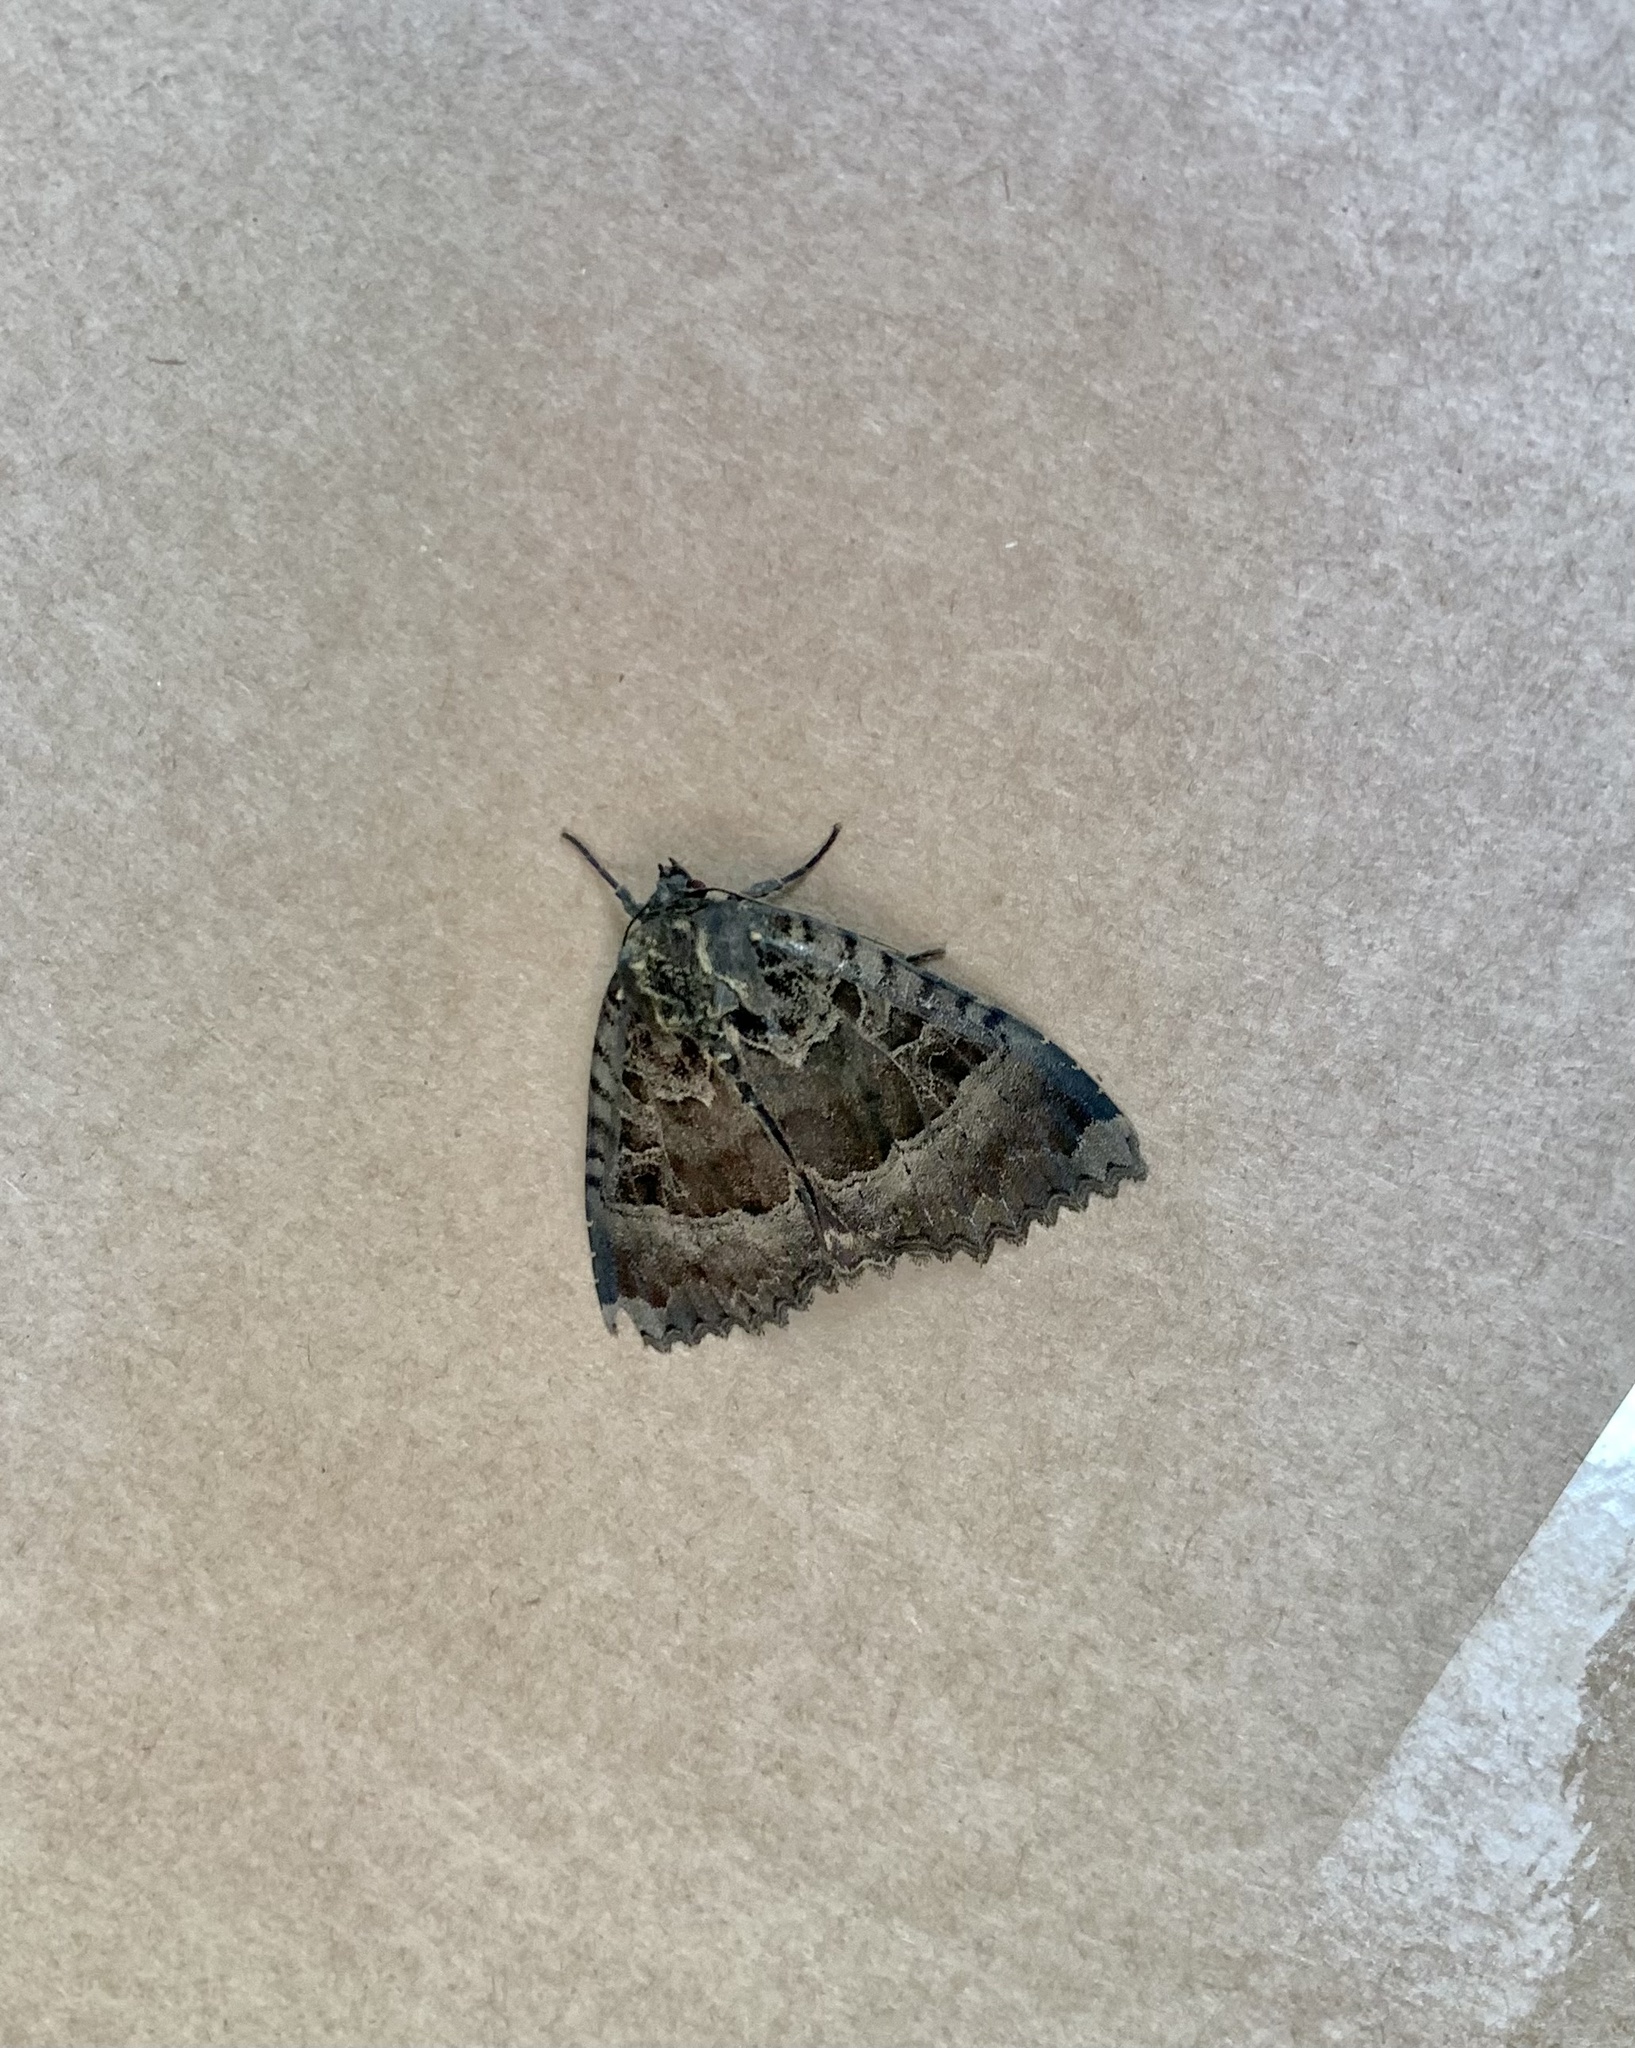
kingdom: Animalia
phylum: Arthropoda
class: Insecta
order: Lepidoptera
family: Noctuidae
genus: Mormo
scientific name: Mormo maura
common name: Old lady
